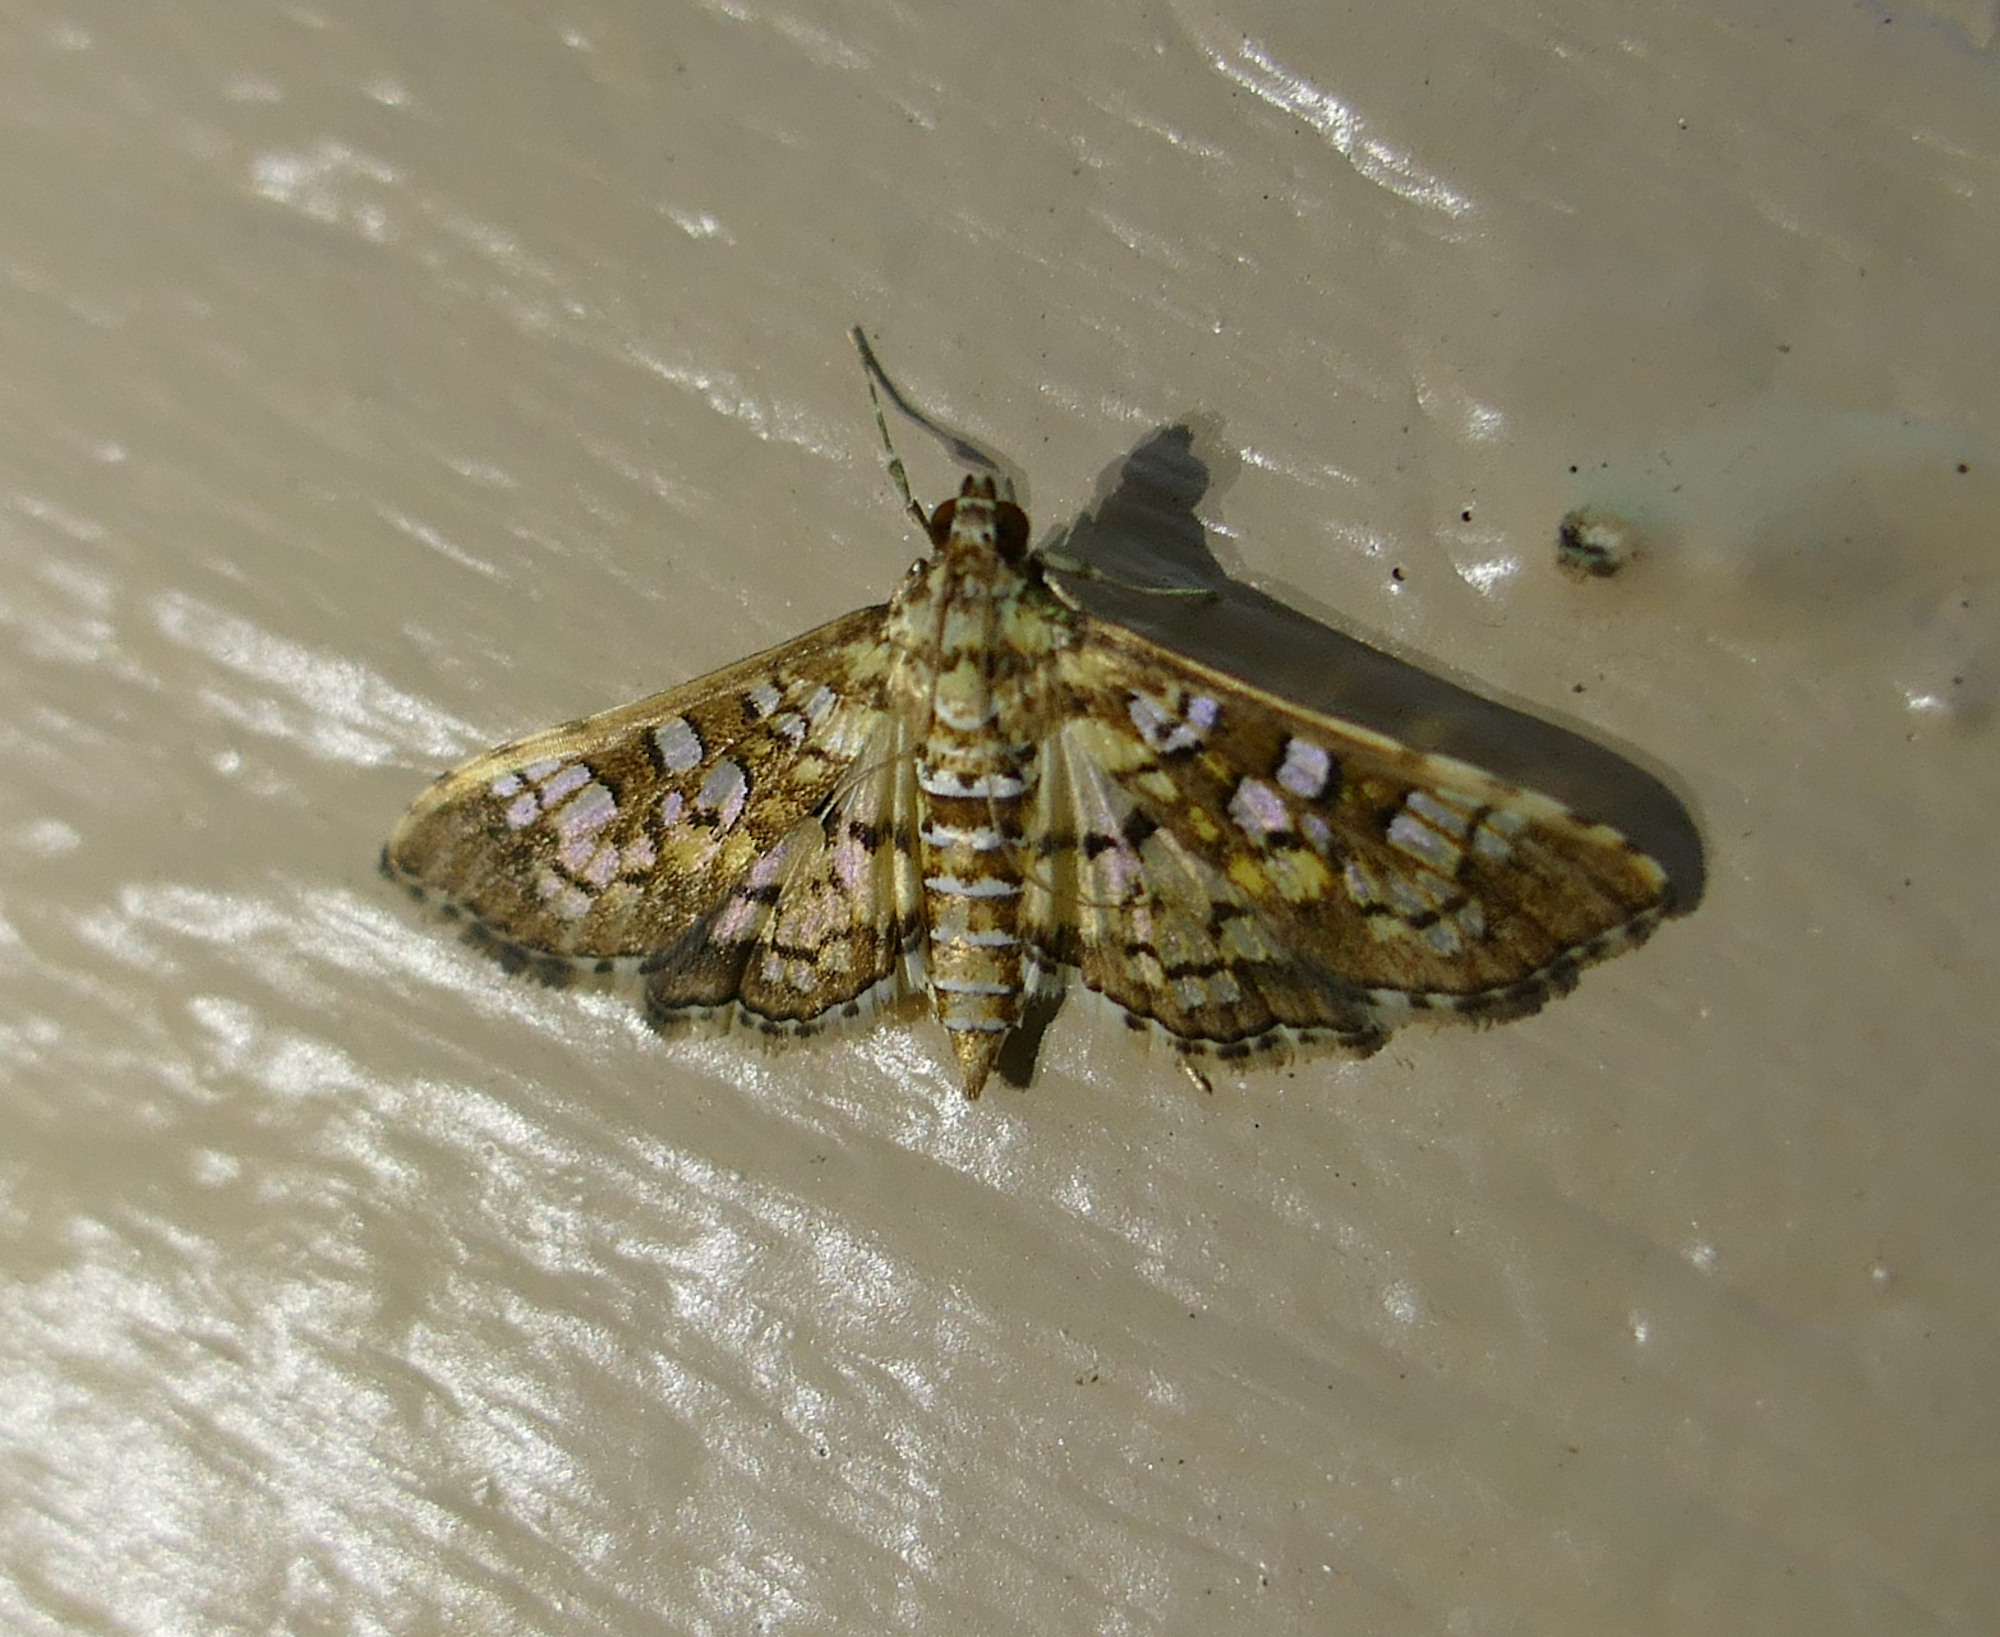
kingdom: Animalia
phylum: Arthropoda
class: Insecta
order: Lepidoptera
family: Crambidae
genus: Samea
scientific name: Samea ecclesialis
